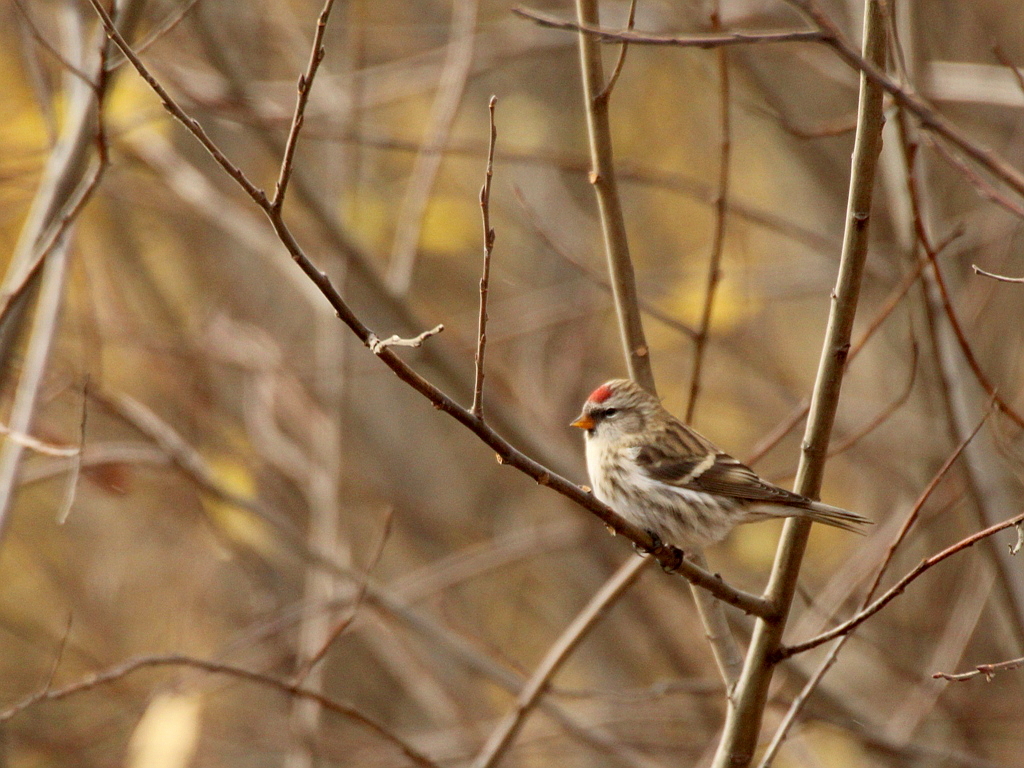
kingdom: Animalia
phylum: Chordata
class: Aves
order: Passeriformes
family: Fringillidae
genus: Acanthis
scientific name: Acanthis flammea
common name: Common redpoll
